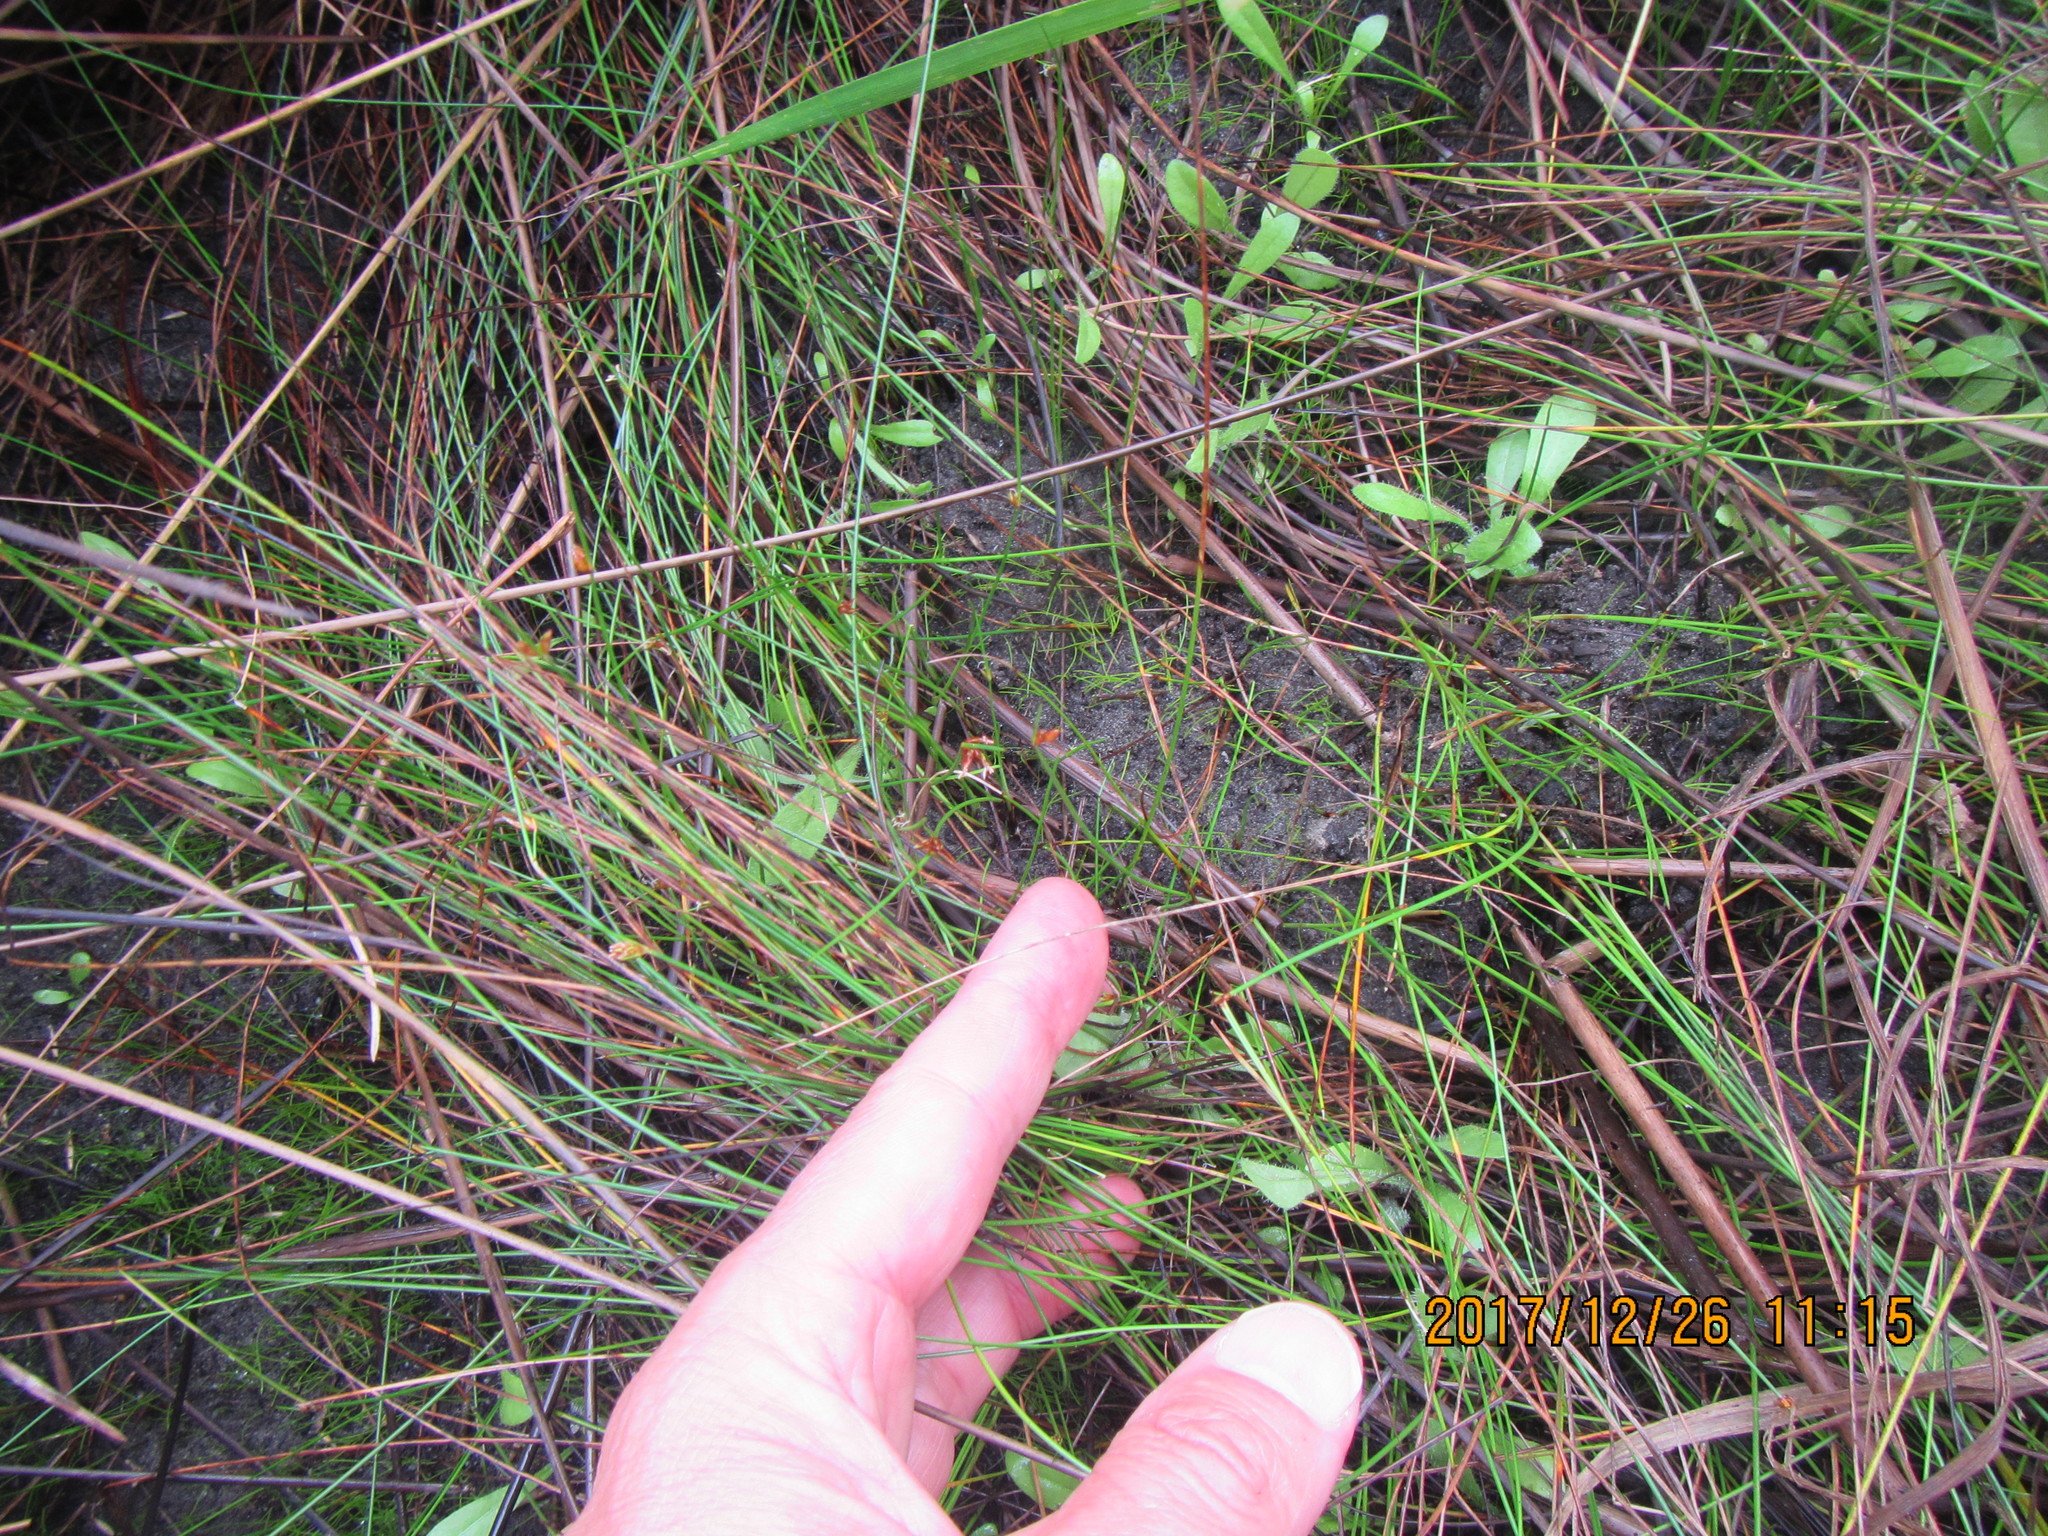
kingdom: Plantae
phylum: Tracheophyta
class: Magnoliopsida
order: Asterales
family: Goodeniaceae
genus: Goodenia
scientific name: Goodenia radicans
